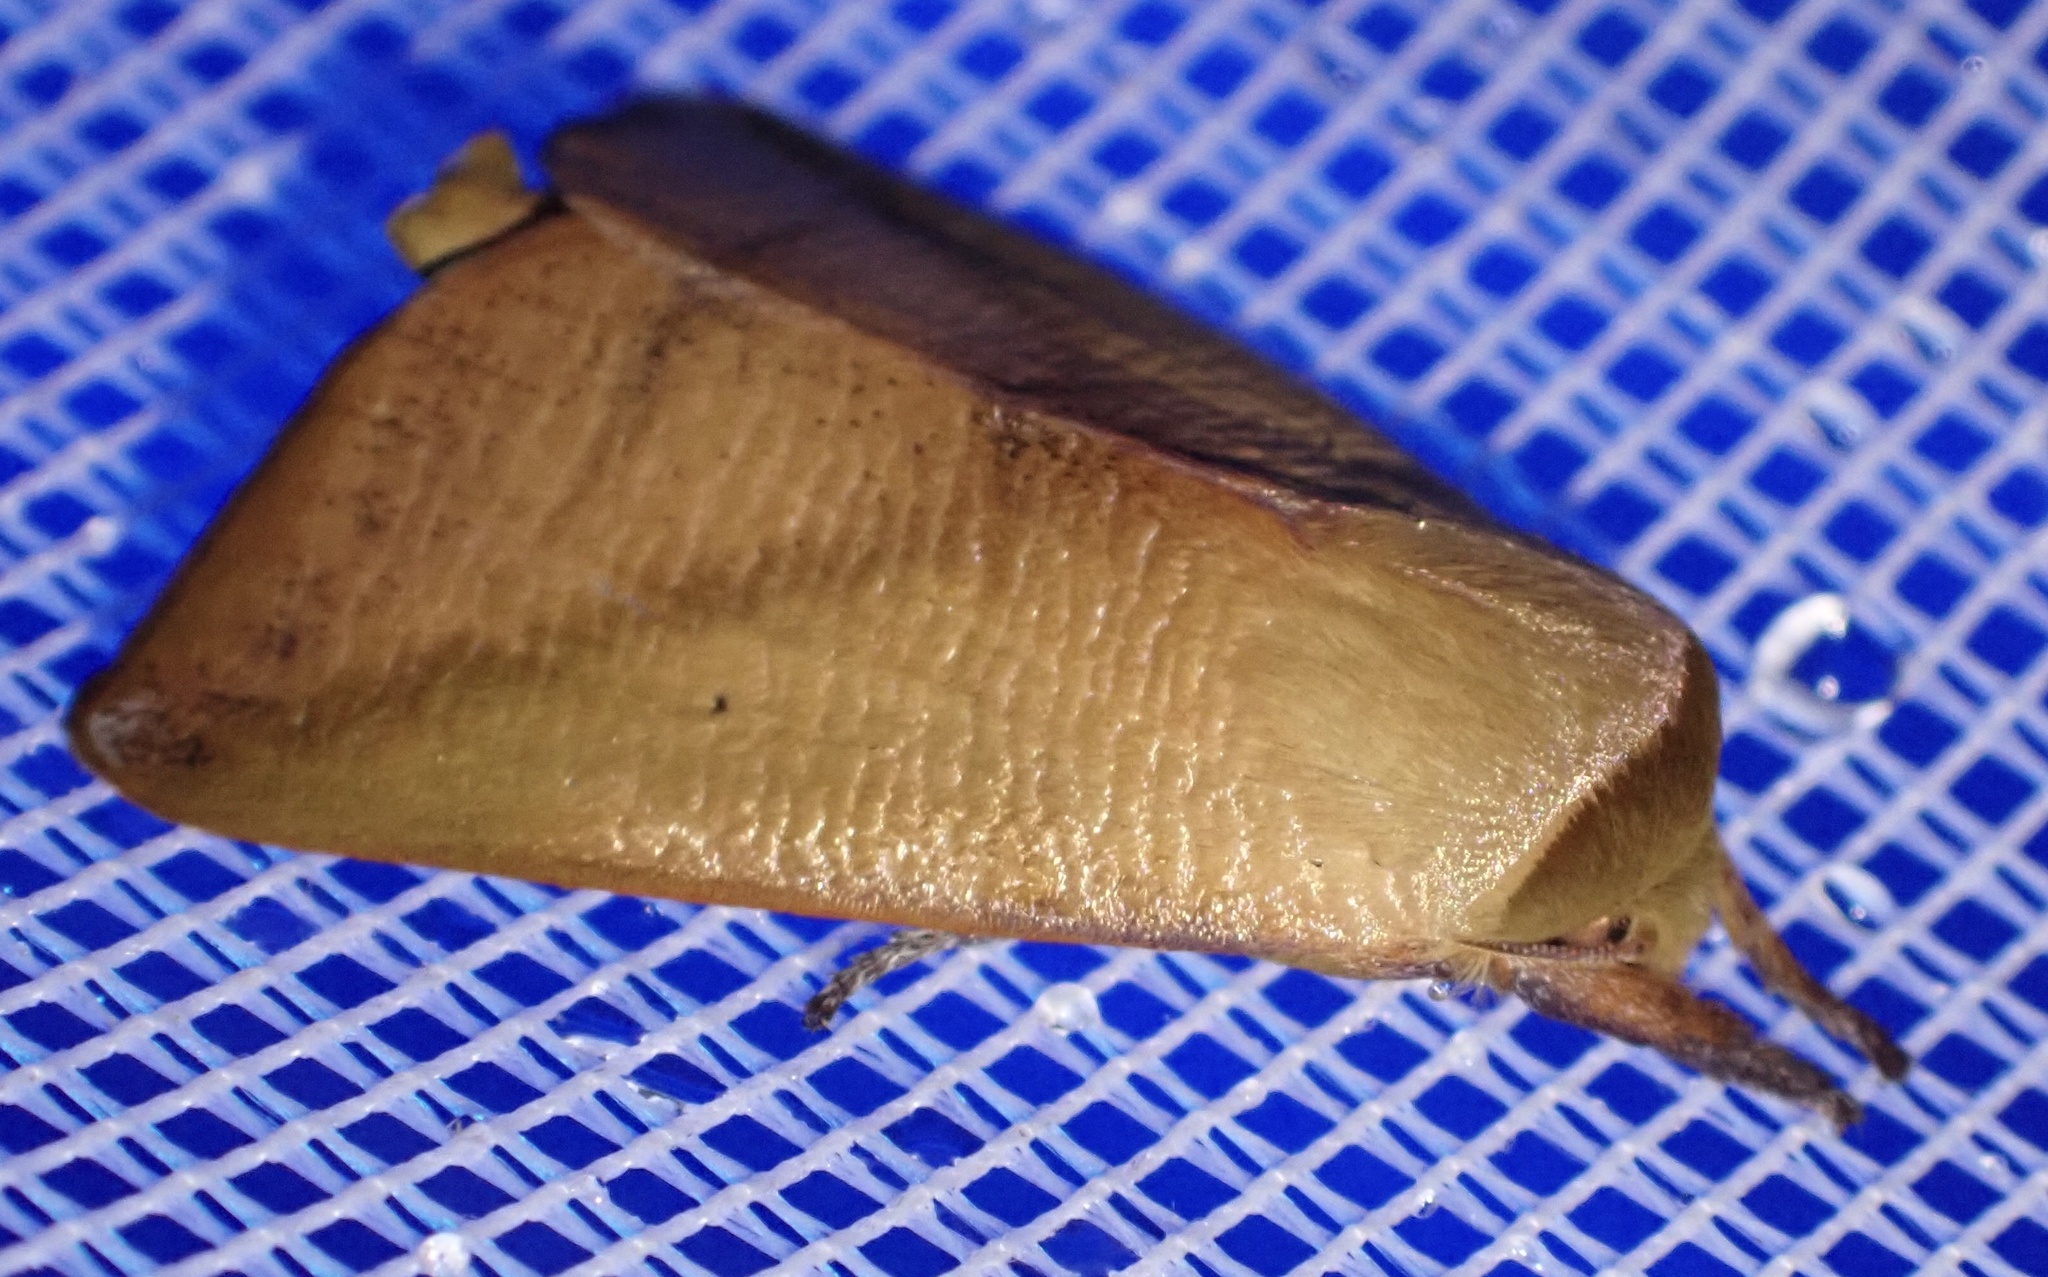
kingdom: Animalia
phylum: Arthropoda
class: Insecta
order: Lepidoptera
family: Nolidae
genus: Carea
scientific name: Carea pratti
